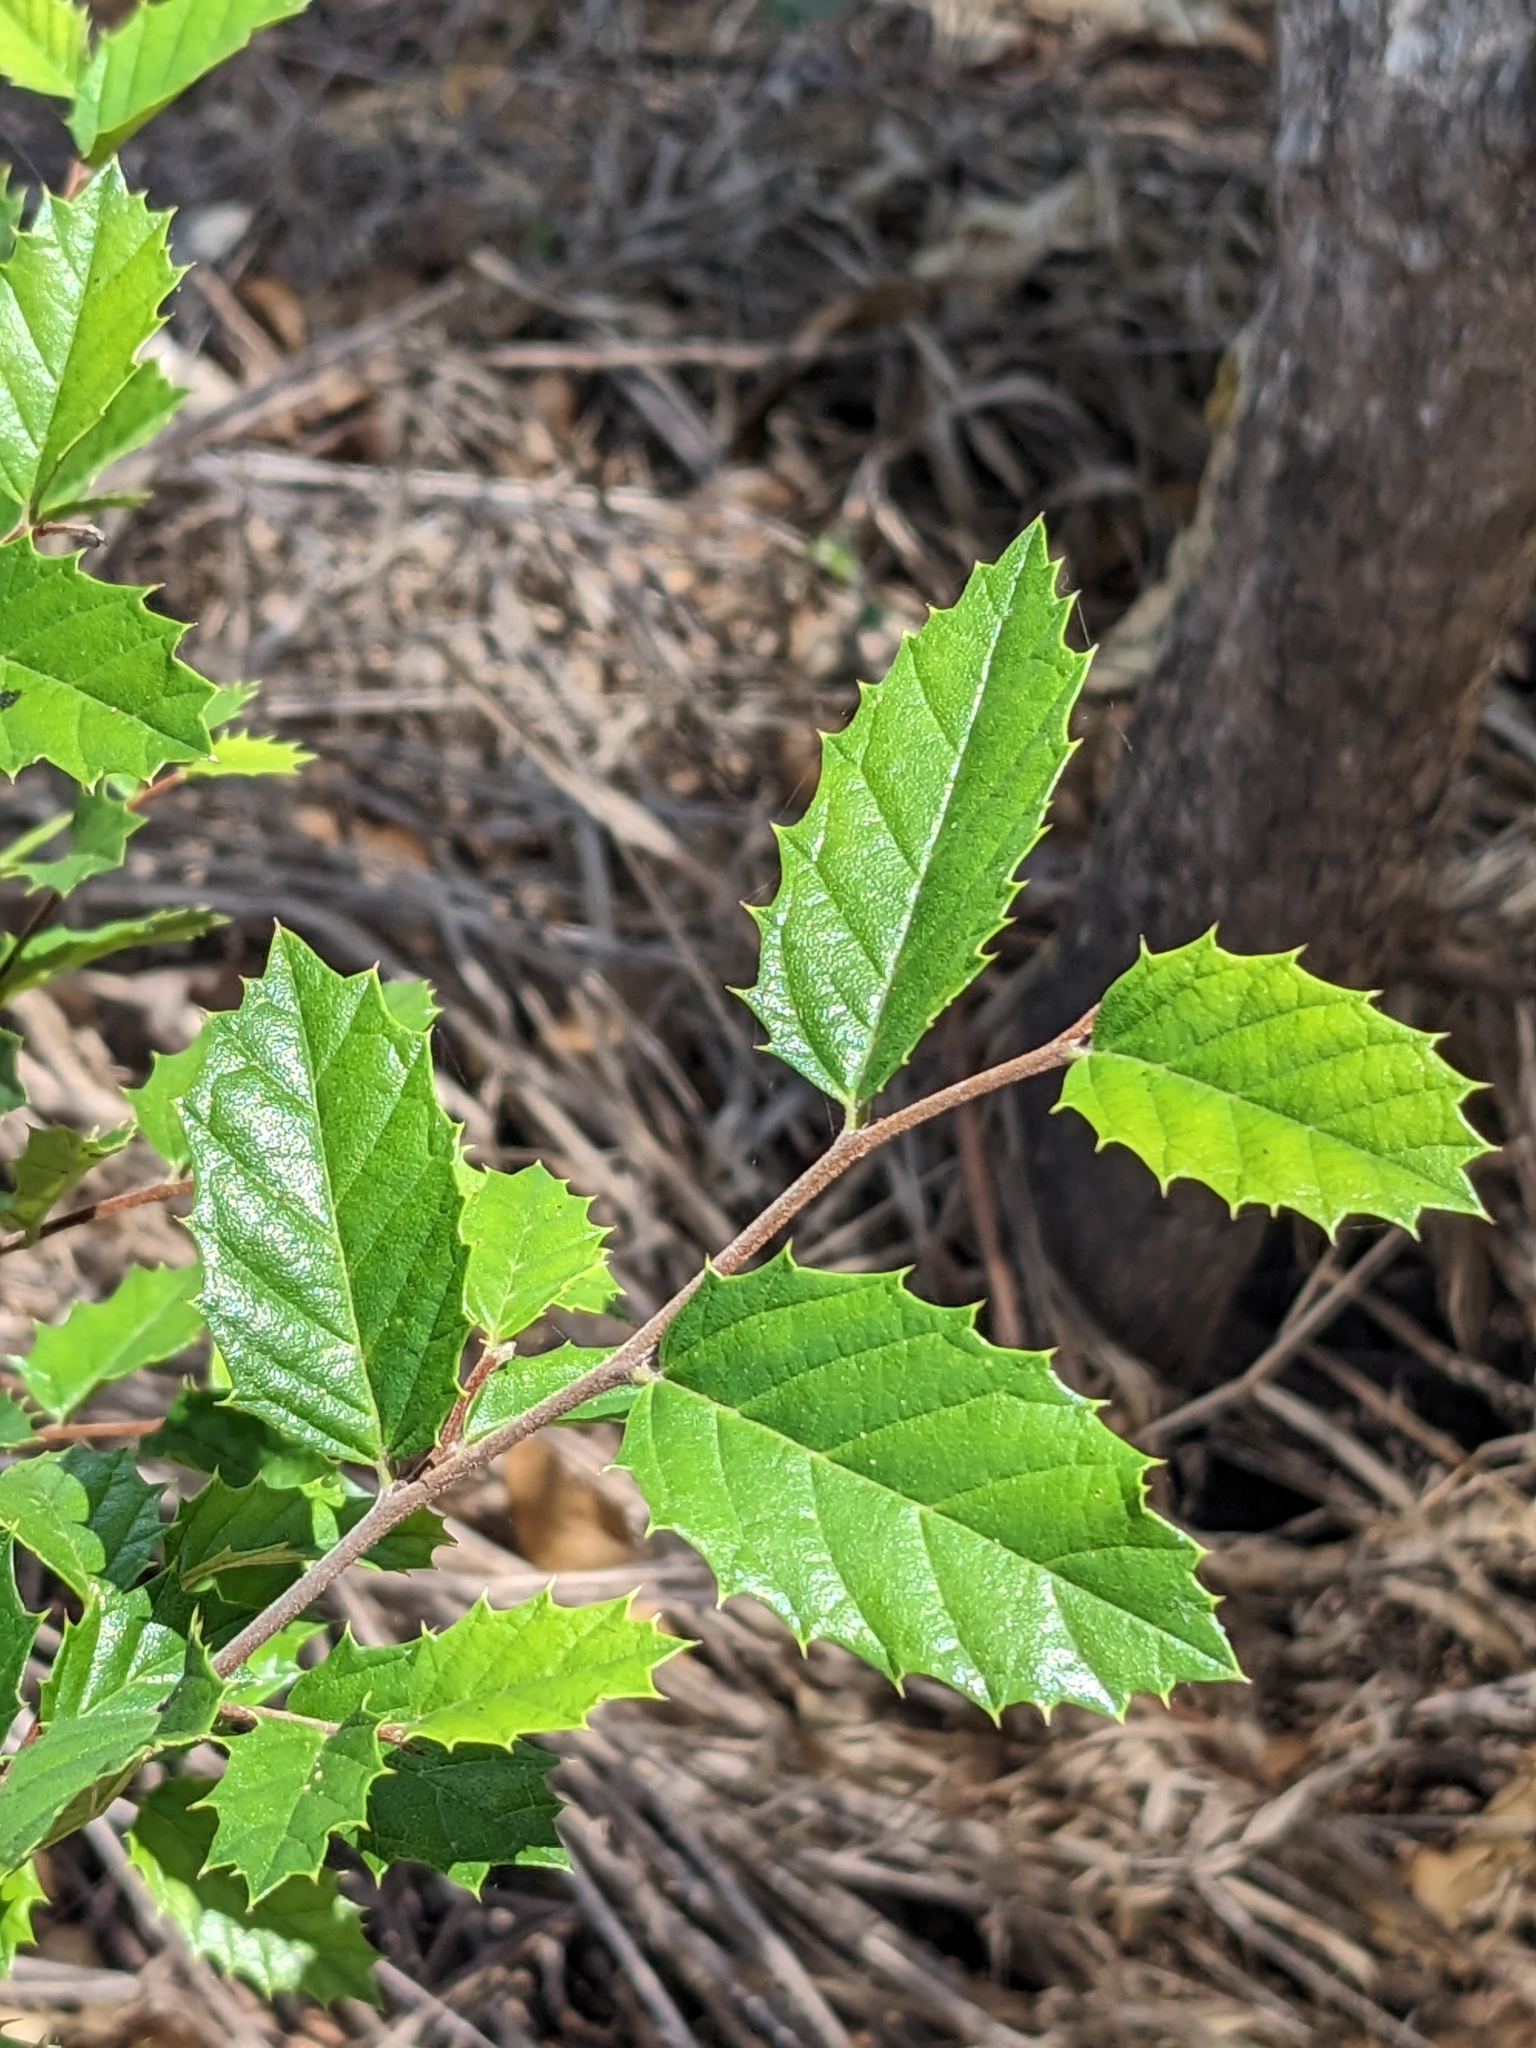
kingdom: Plantae
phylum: Tracheophyta
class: Magnoliopsida
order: Rosales
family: Cannabaceae
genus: Aphananthe
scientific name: Aphananthe philippinensis
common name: Wild holly
